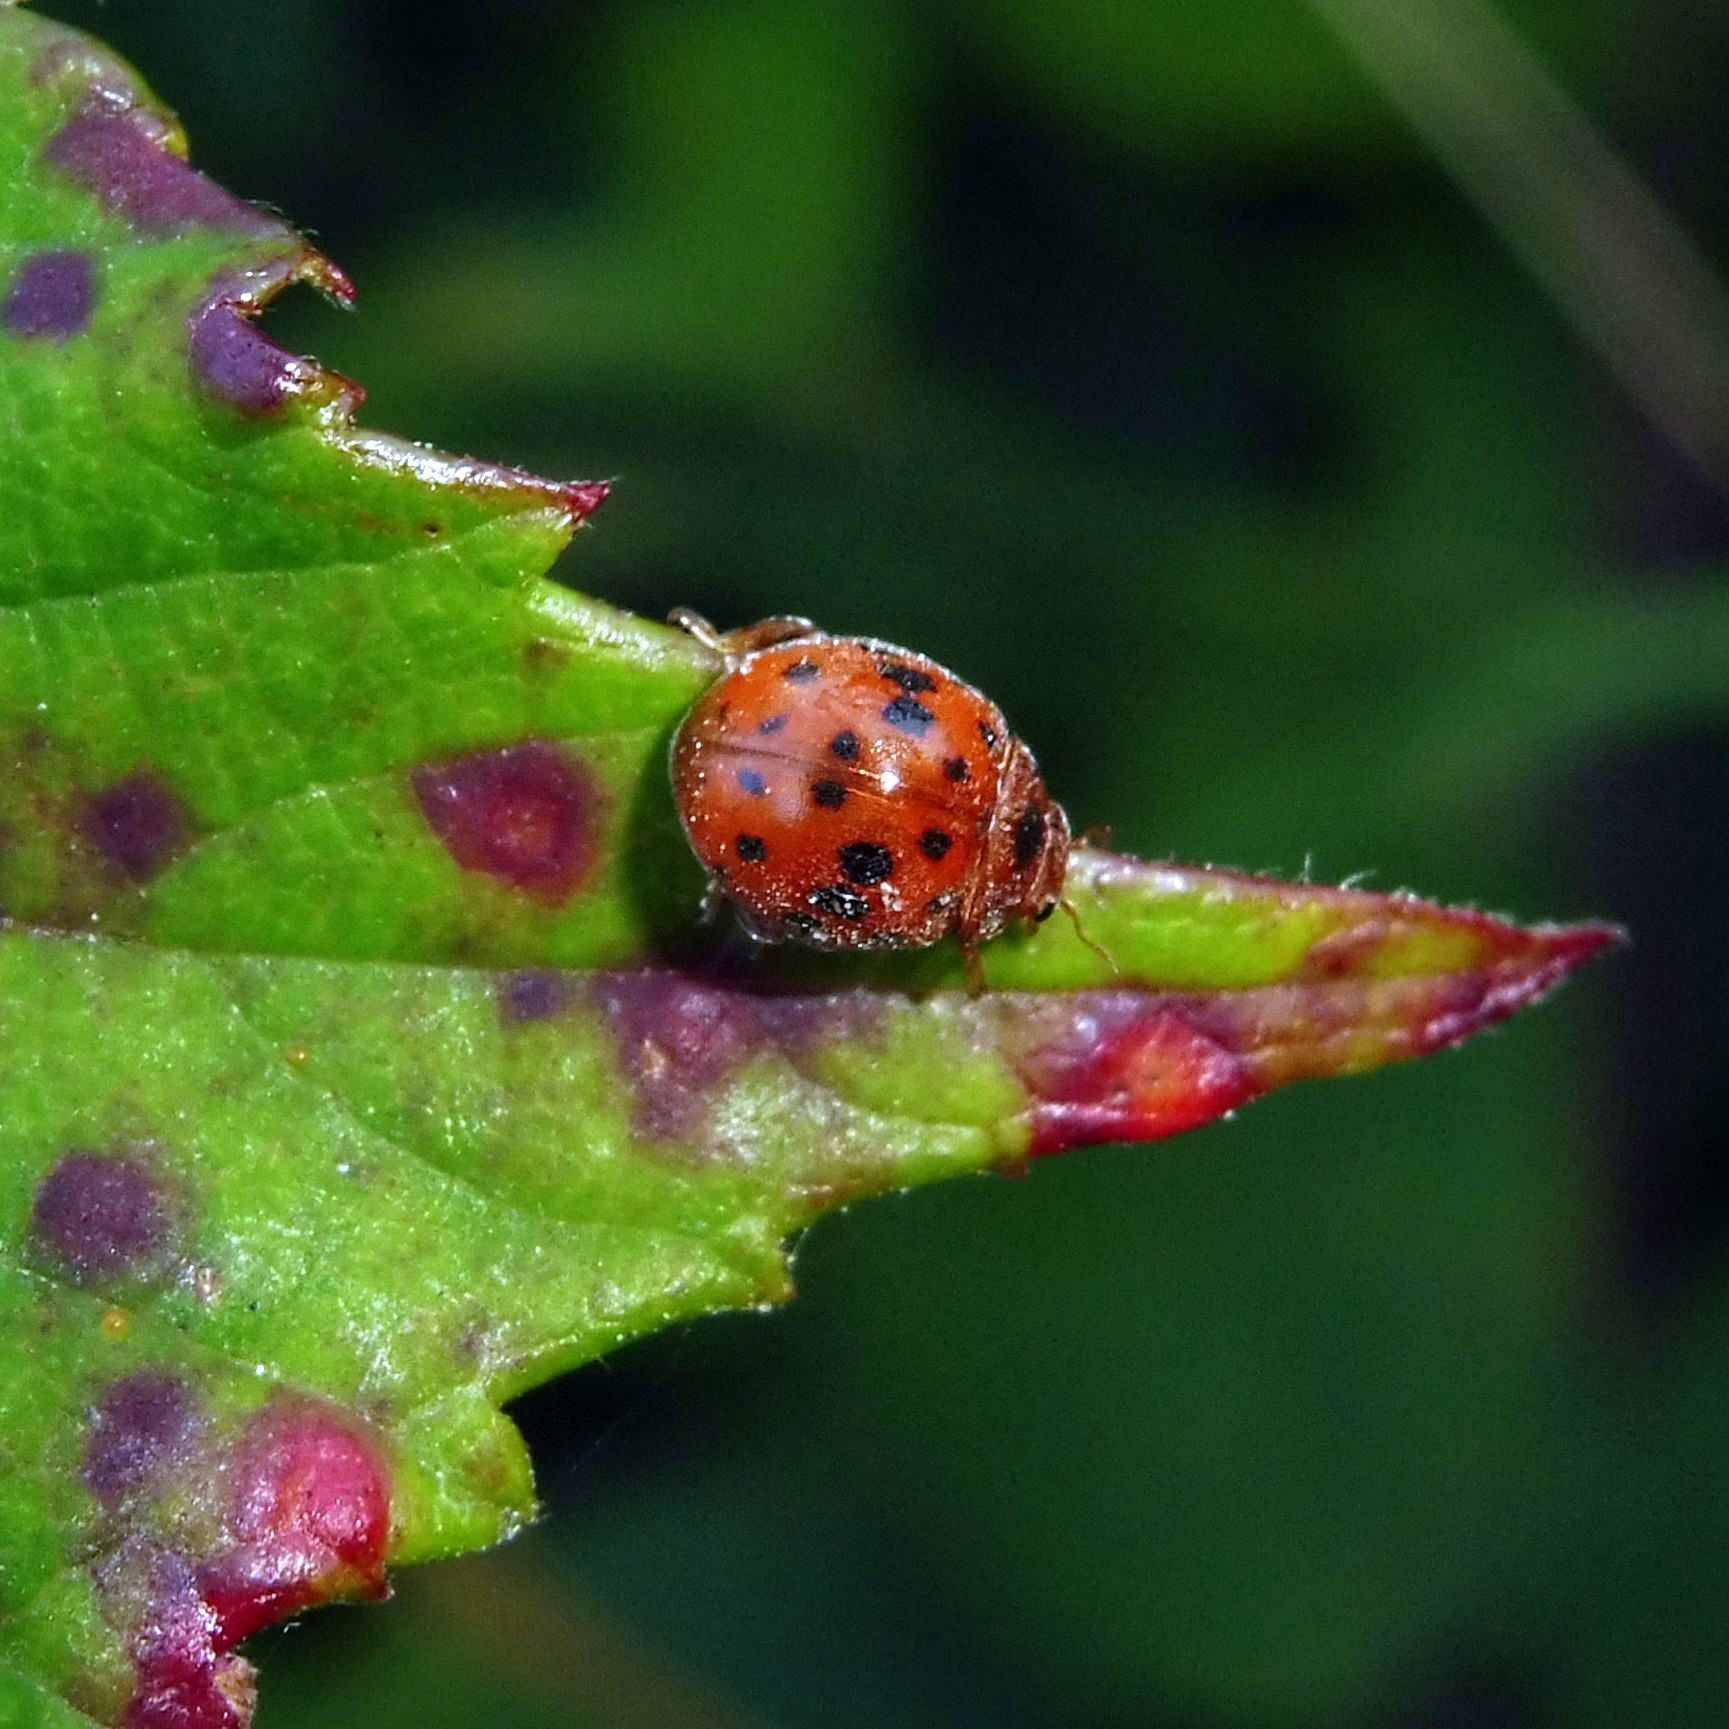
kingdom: Animalia
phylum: Arthropoda
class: Insecta
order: Coleoptera
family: Coccinellidae
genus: Subcoccinella
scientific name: Subcoccinella vigintiquatuorpunctata
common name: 24-spot ladybird
